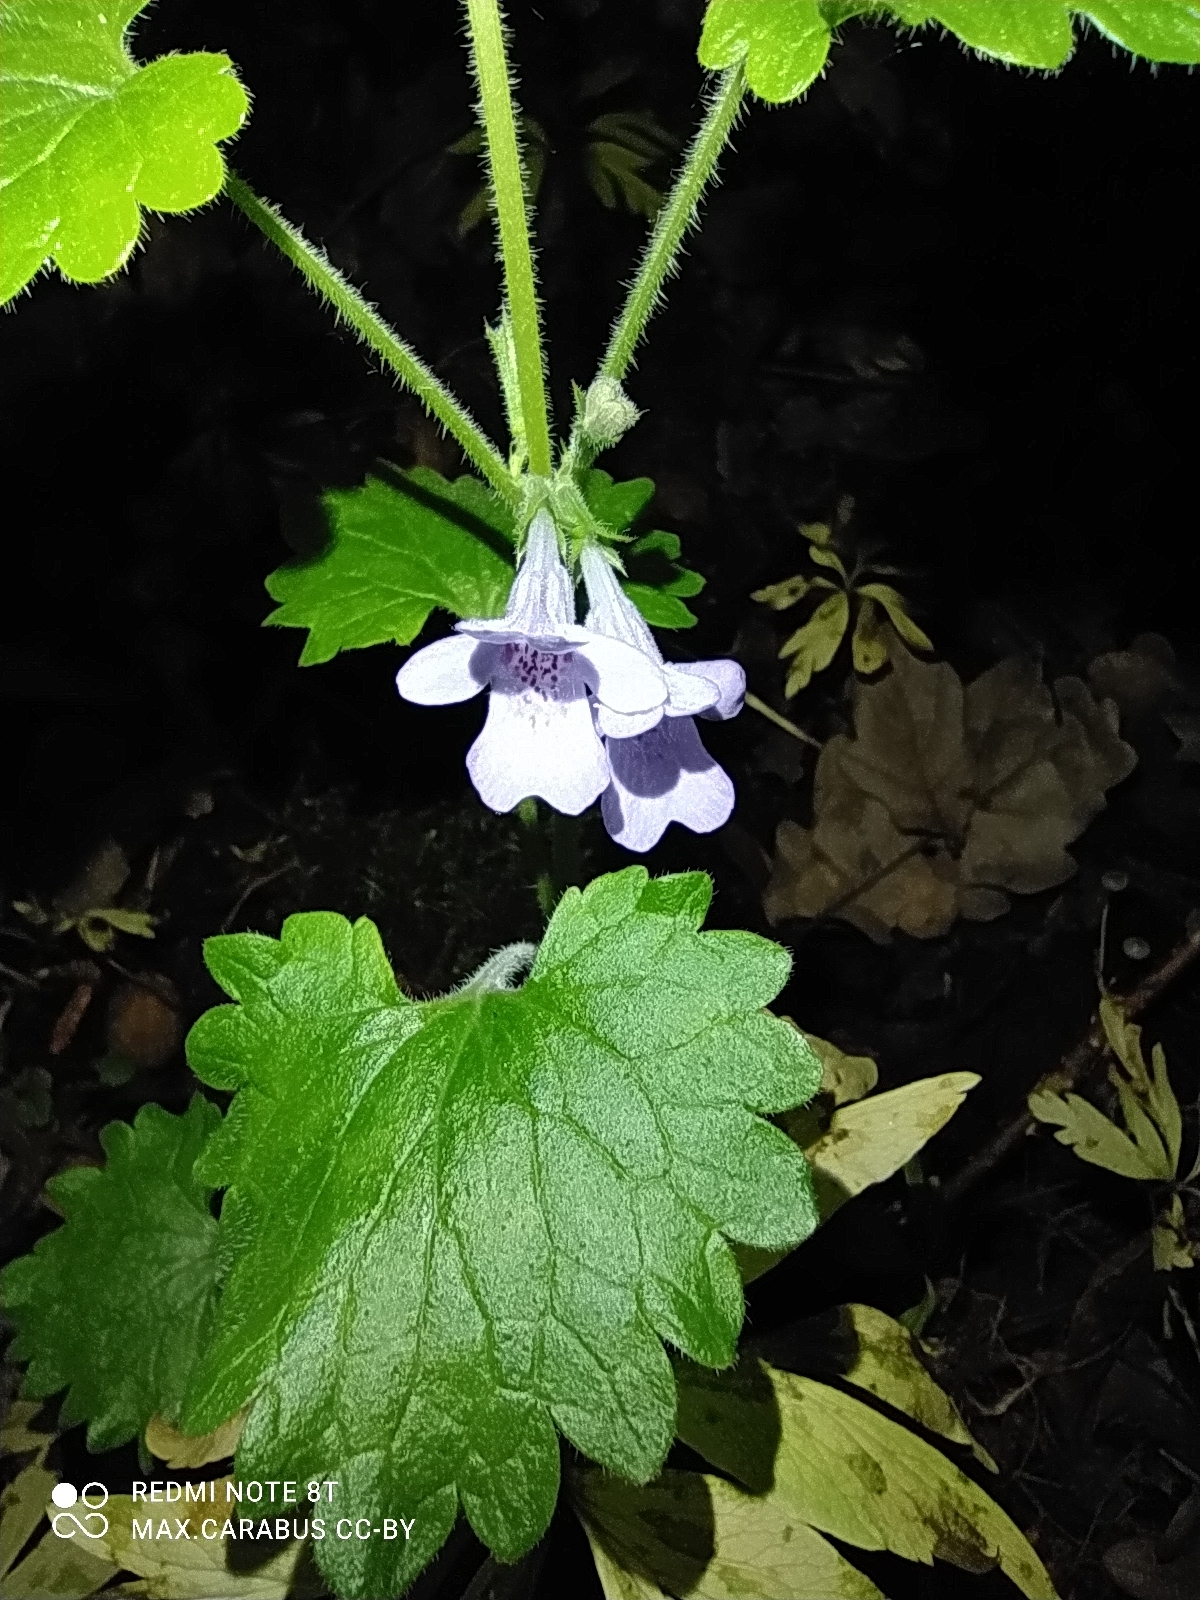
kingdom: Plantae
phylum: Tracheophyta
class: Magnoliopsida
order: Lamiales
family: Lamiaceae
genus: Glechoma
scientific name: Glechoma hederacea
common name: Ground ivy
